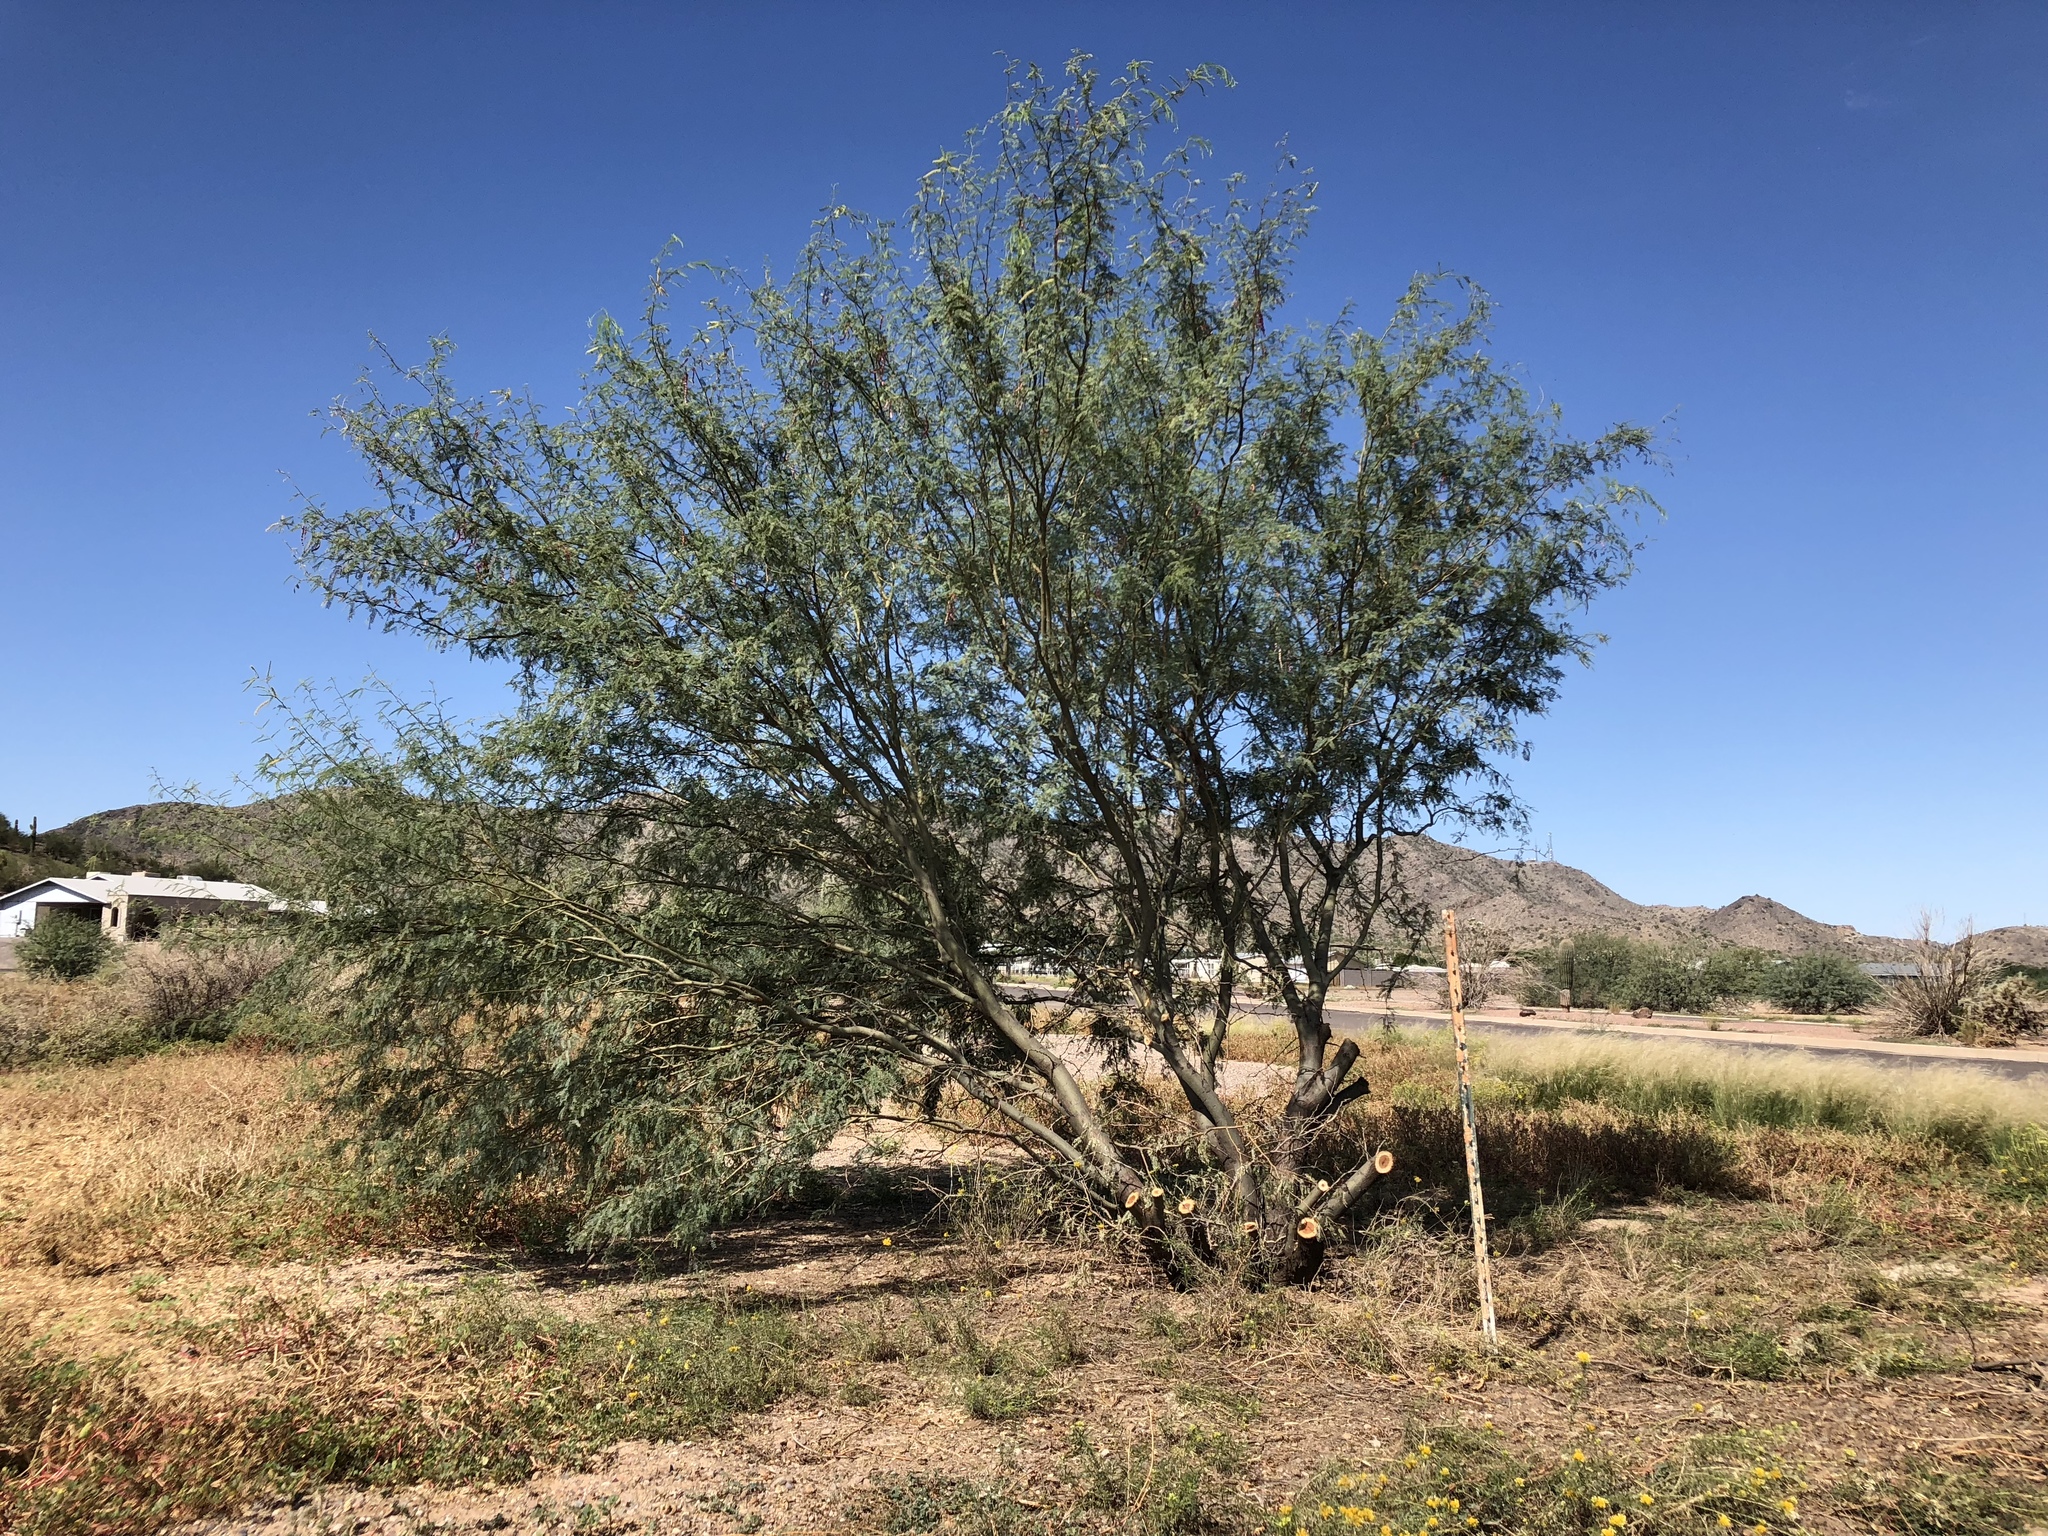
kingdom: Plantae
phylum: Tracheophyta
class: Magnoliopsida
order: Fabales
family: Fabaceae
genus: Olneya
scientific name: Olneya tesota
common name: Desert ironwood
